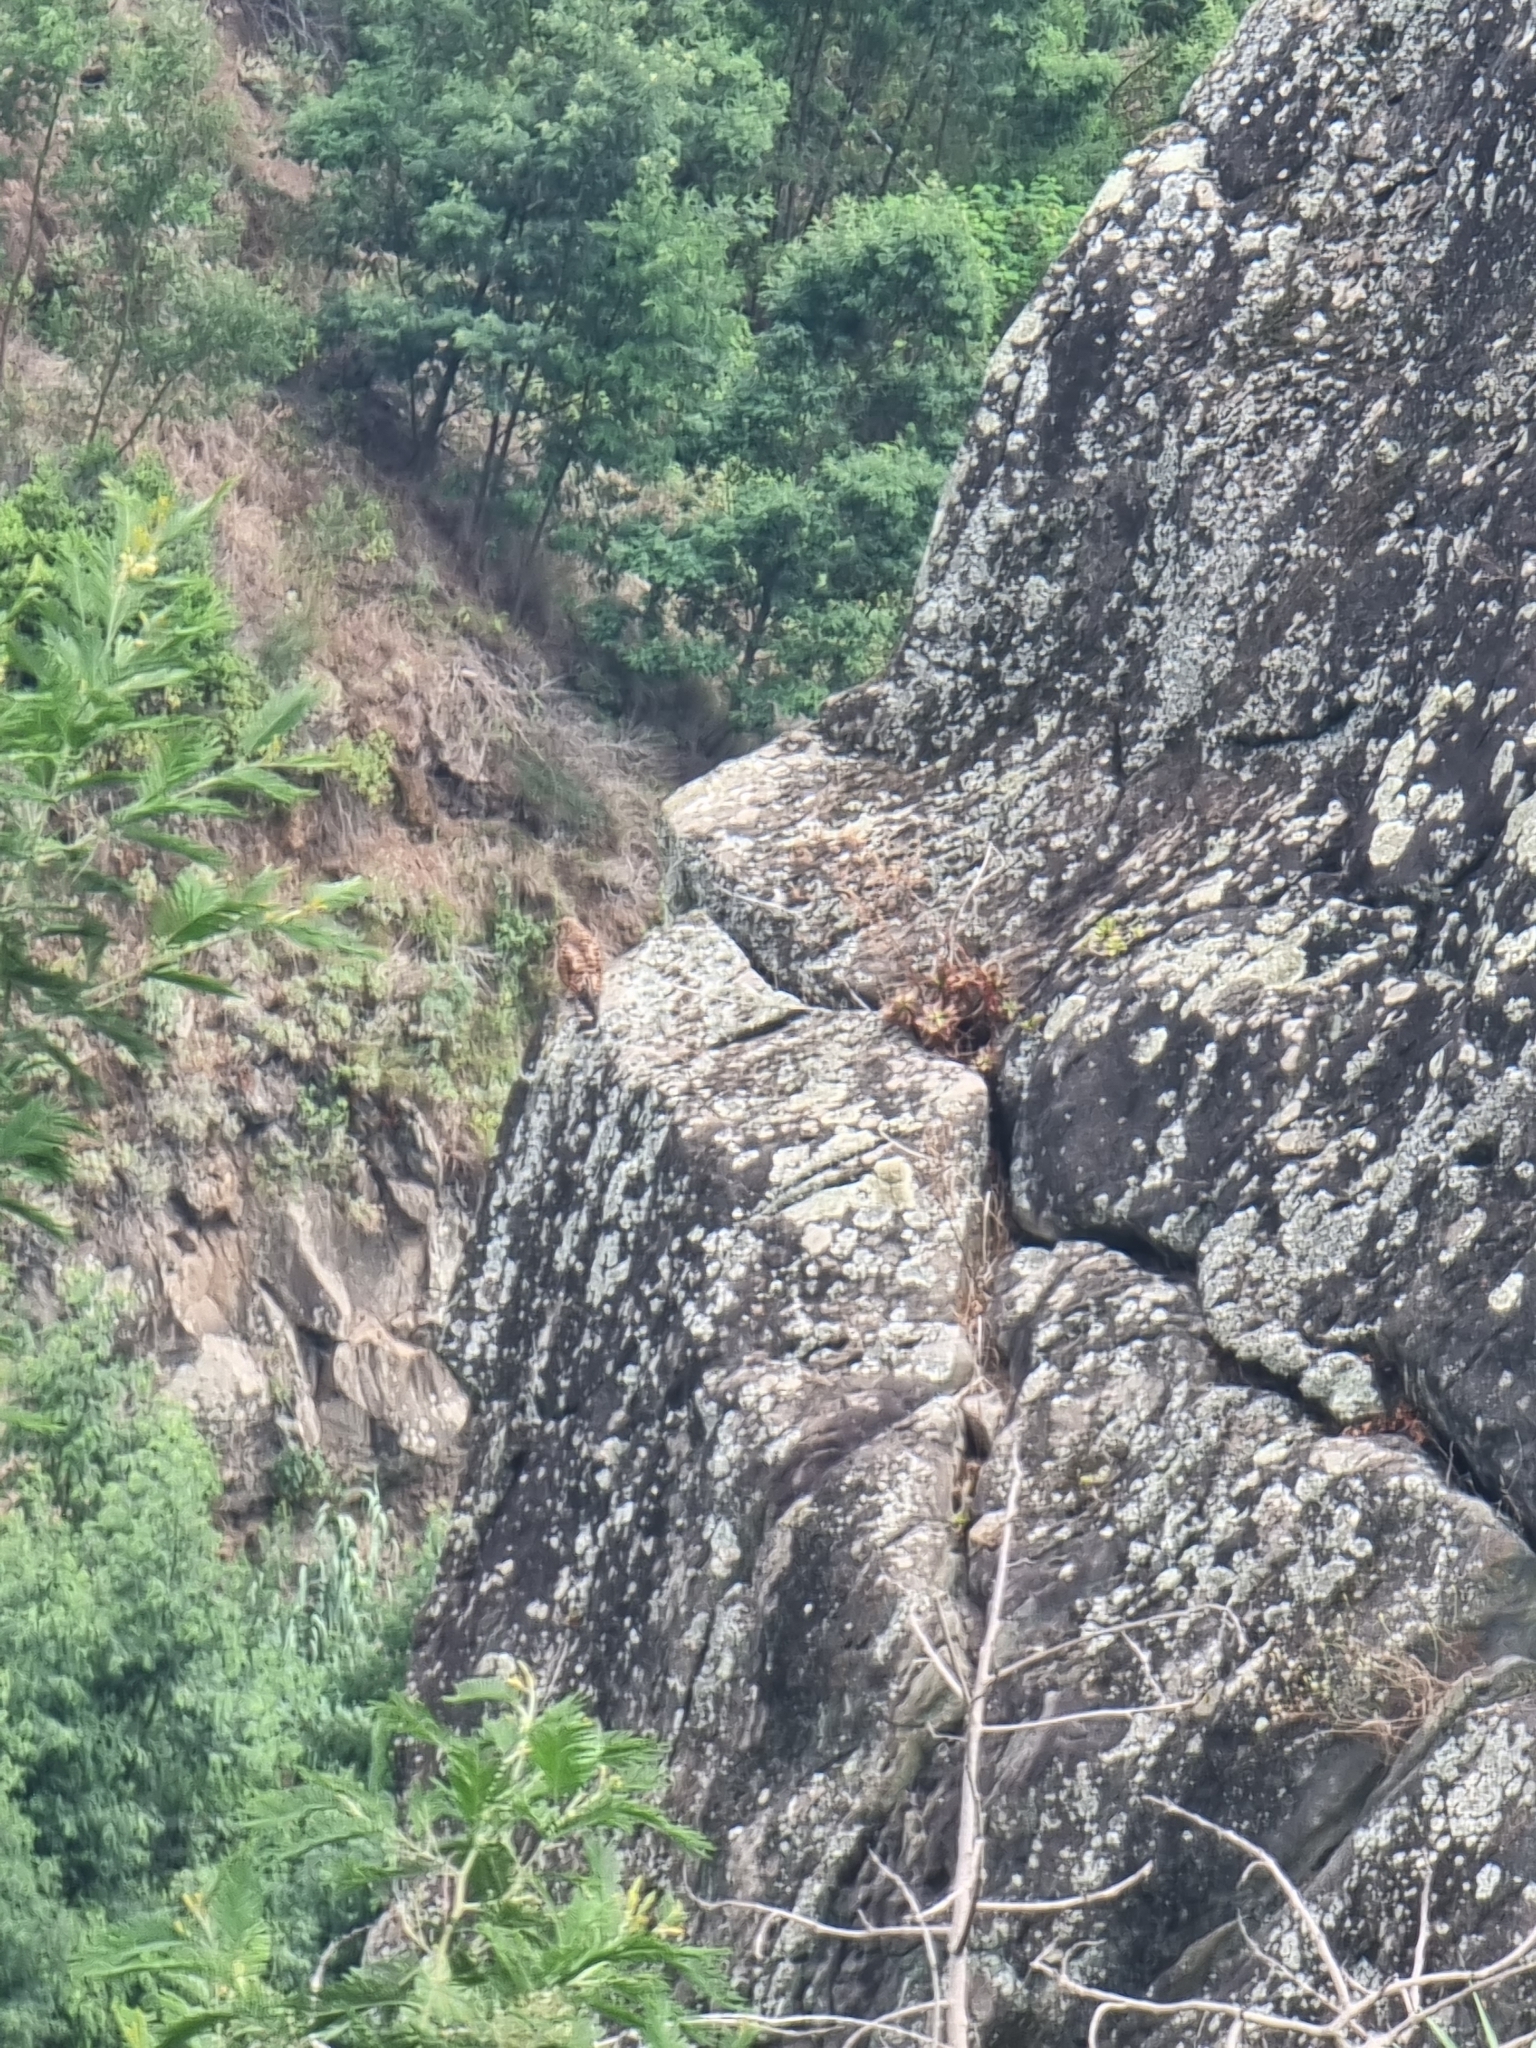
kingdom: Animalia
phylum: Chordata
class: Aves
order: Falconiformes
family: Falconidae
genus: Falco
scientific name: Falco tinnunculus
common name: Common kestrel
